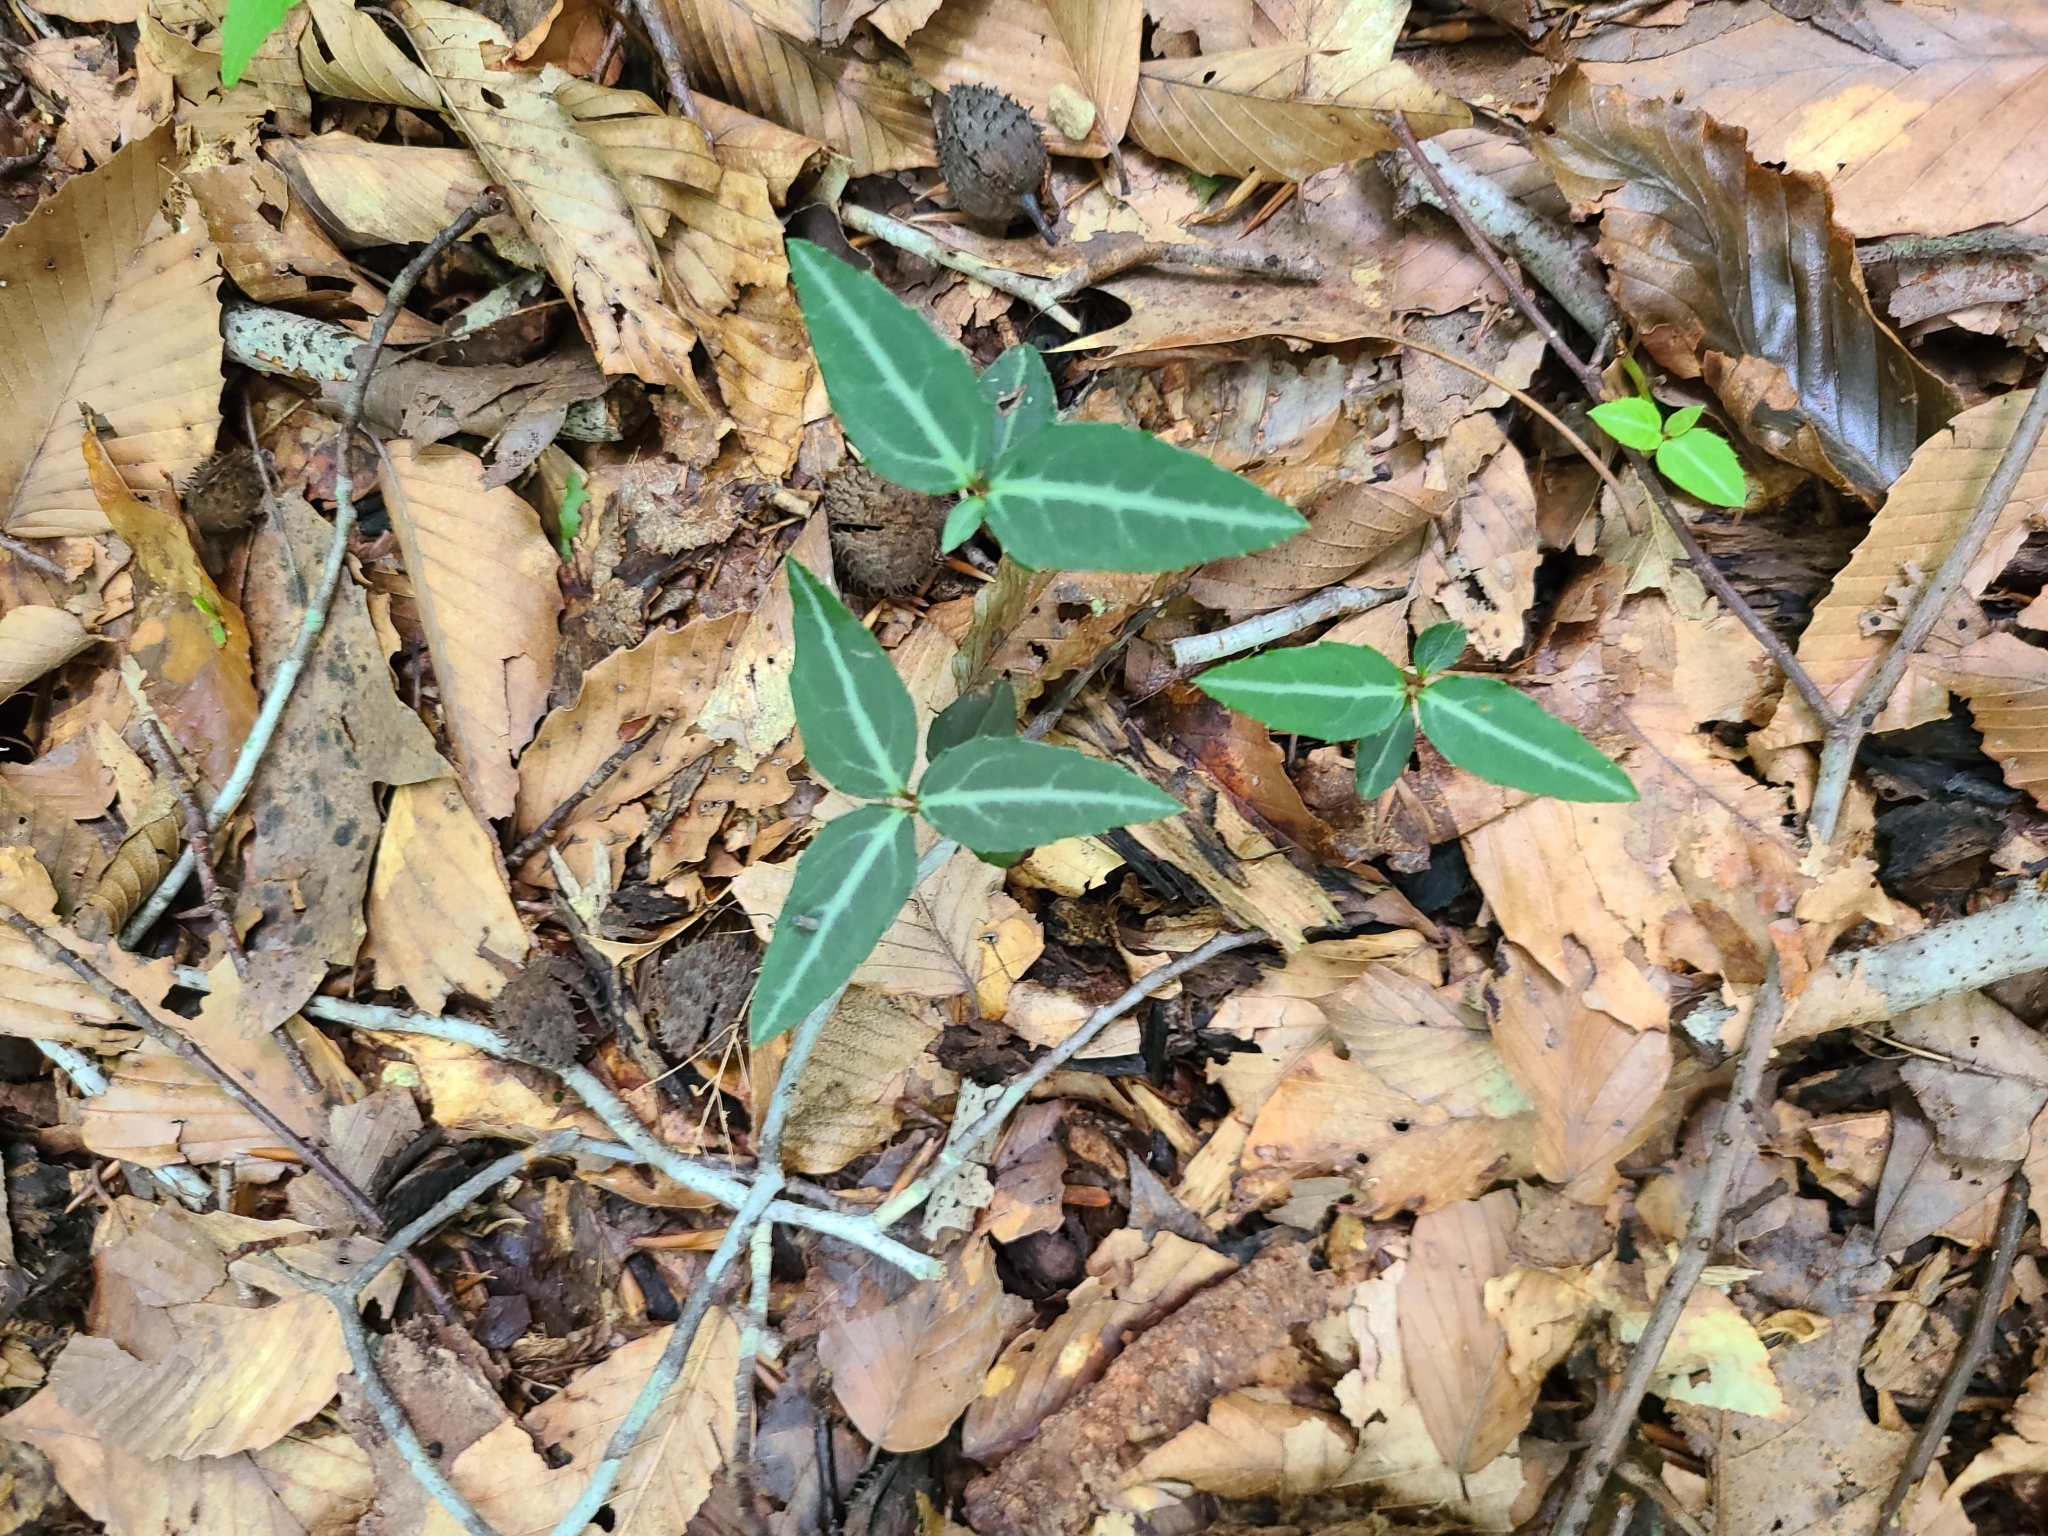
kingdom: Plantae
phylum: Tracheophyta
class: Magnoliopsida
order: Ericales
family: Ericaceae
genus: Chimaphila
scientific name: Chimaphila maculata
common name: Spotted pipsissewa
